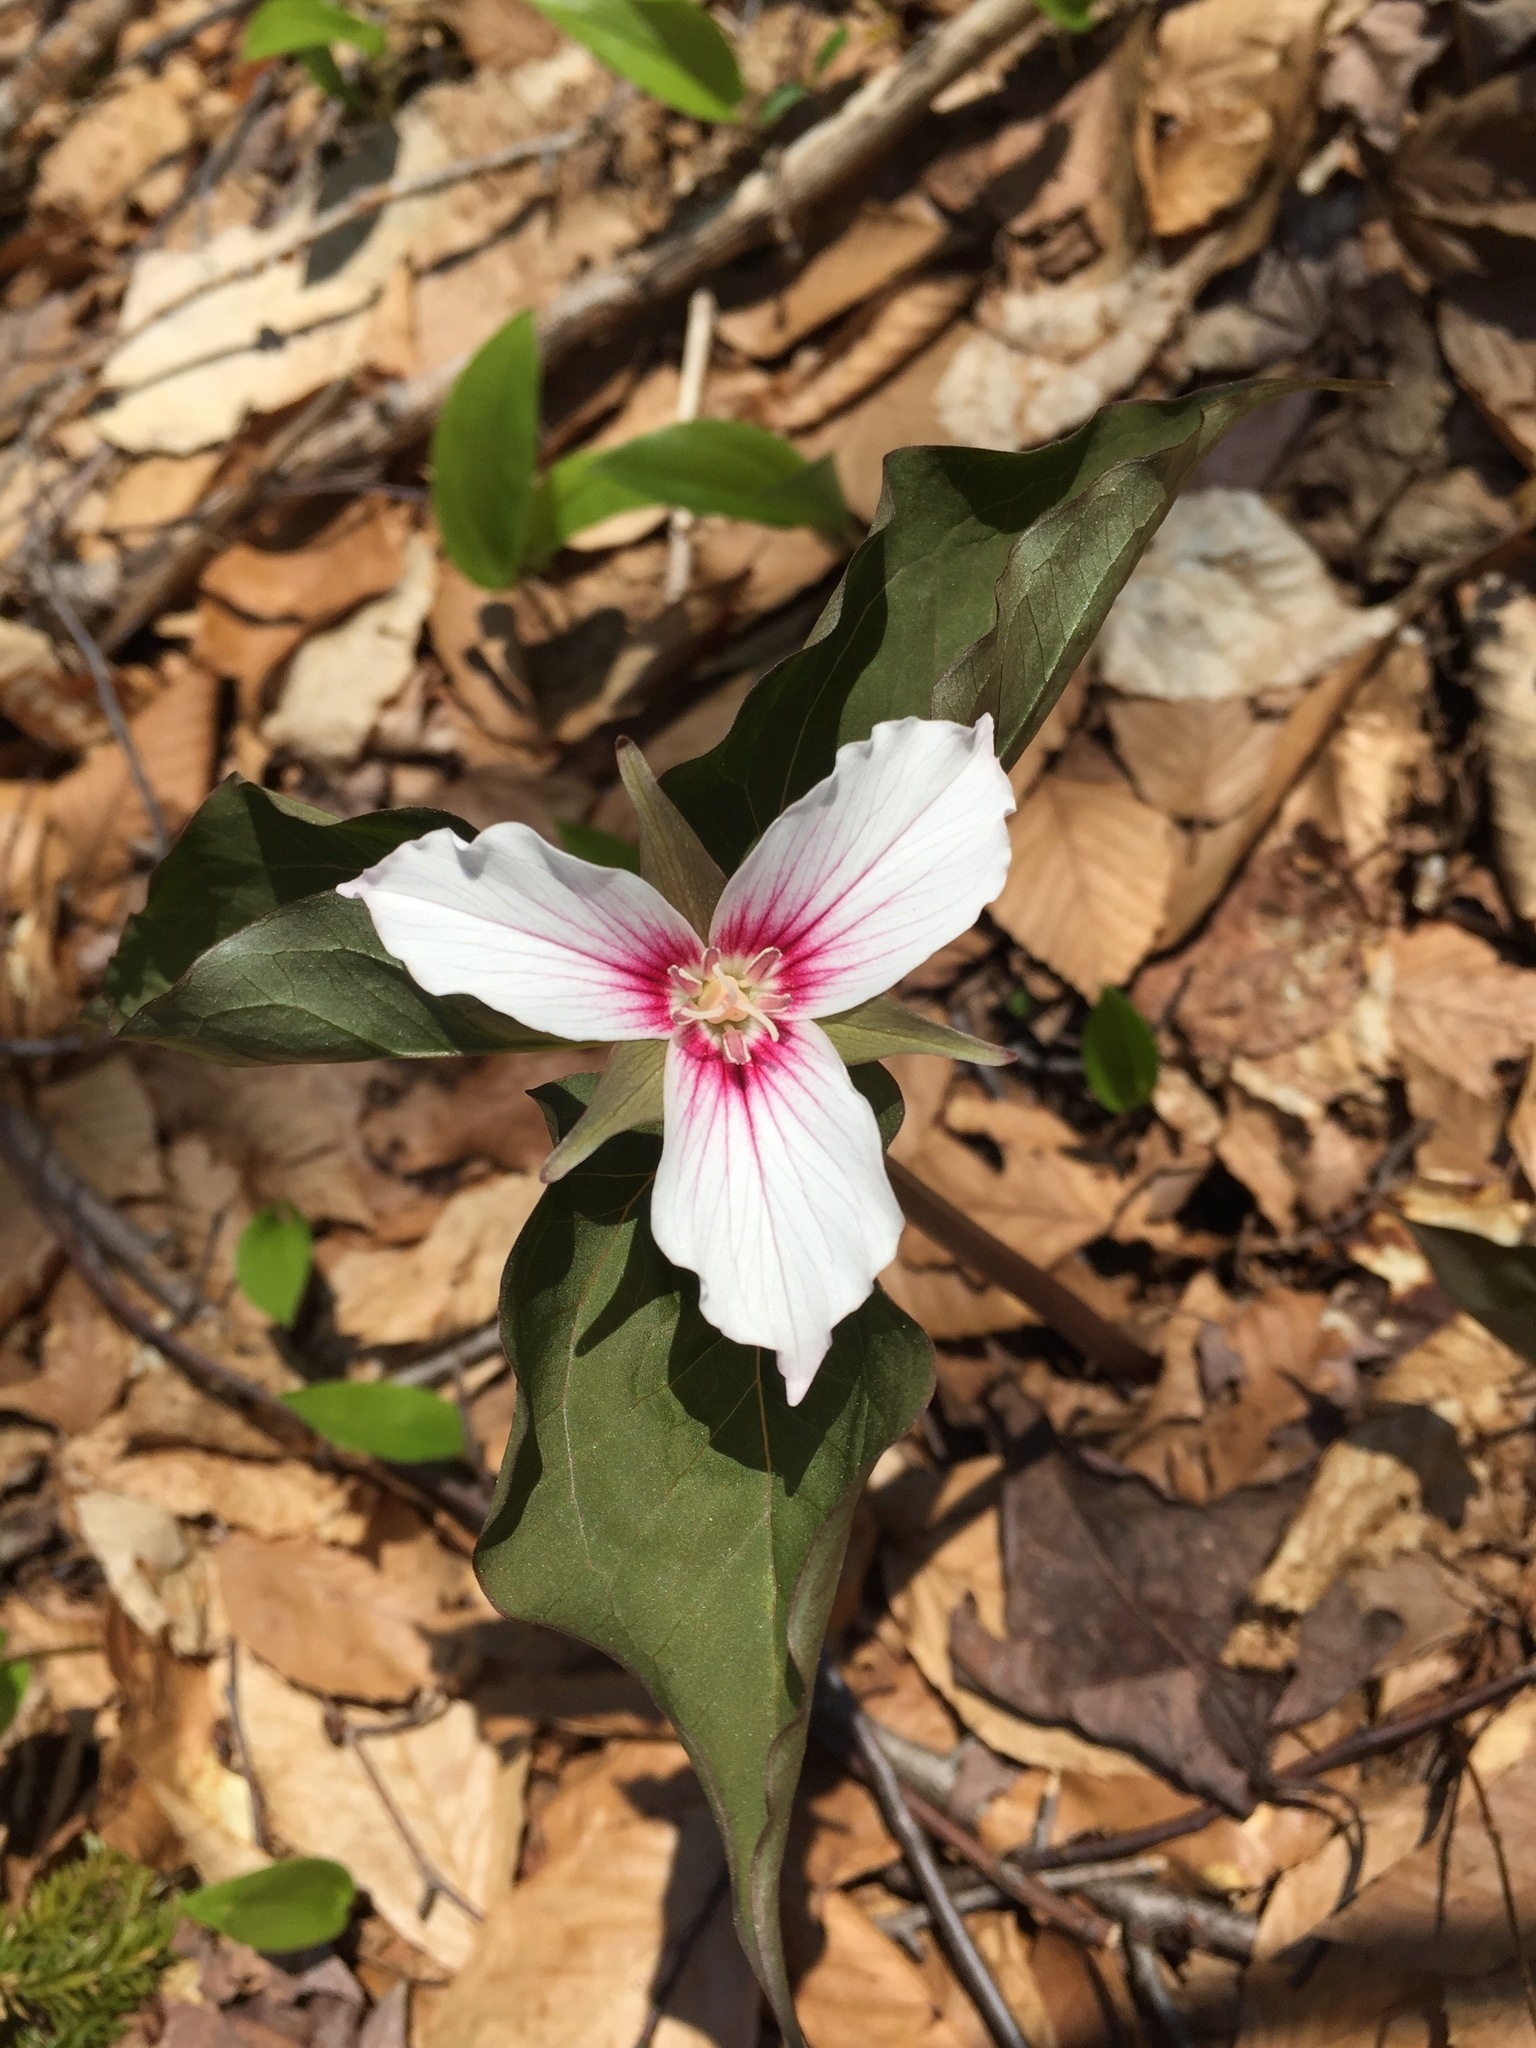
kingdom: Plantae
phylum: Tracheophyta
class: Liliopsida
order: Liliales
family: Melanthiaceae
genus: Trillium
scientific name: Trillium undulatum
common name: Paint trillium
